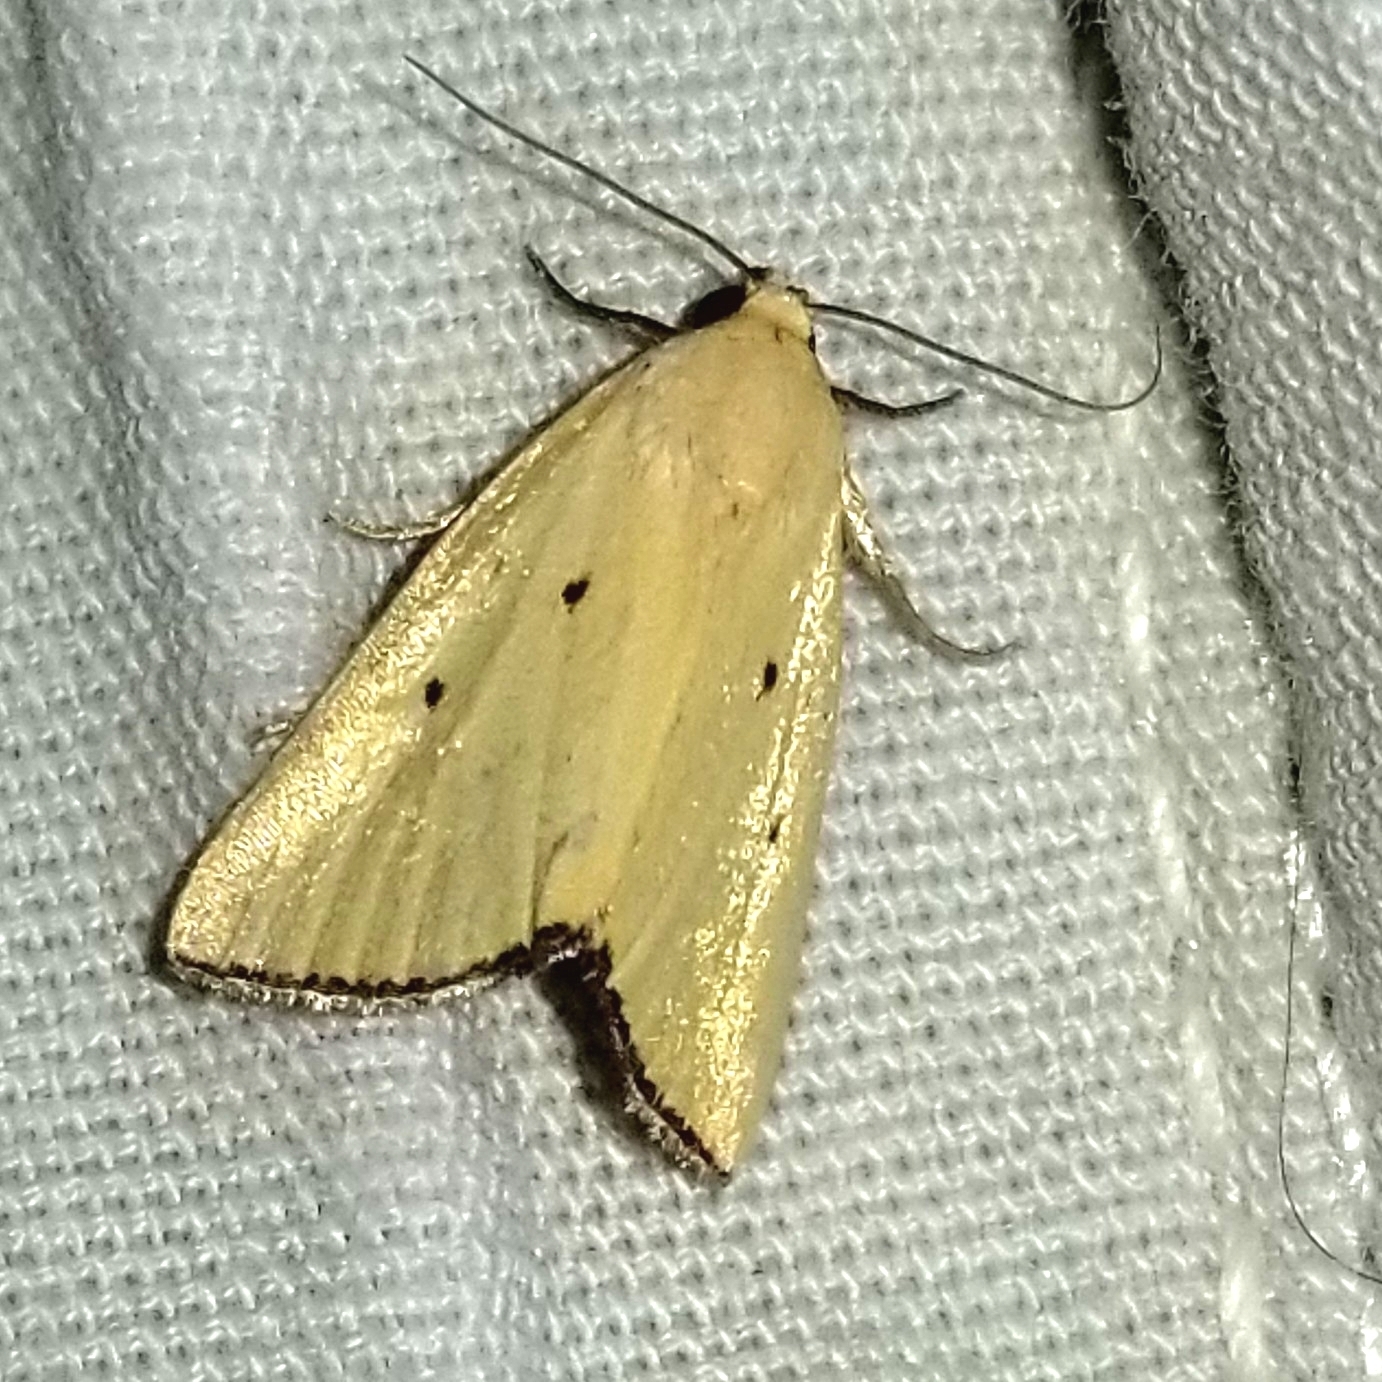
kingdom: Animalia
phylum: Arthropoda
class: Insecta
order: Lepidoptera
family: Noctuidae
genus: Marimatha
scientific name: Marimatha nigrofimbria
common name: Black-bordered lemon moth
